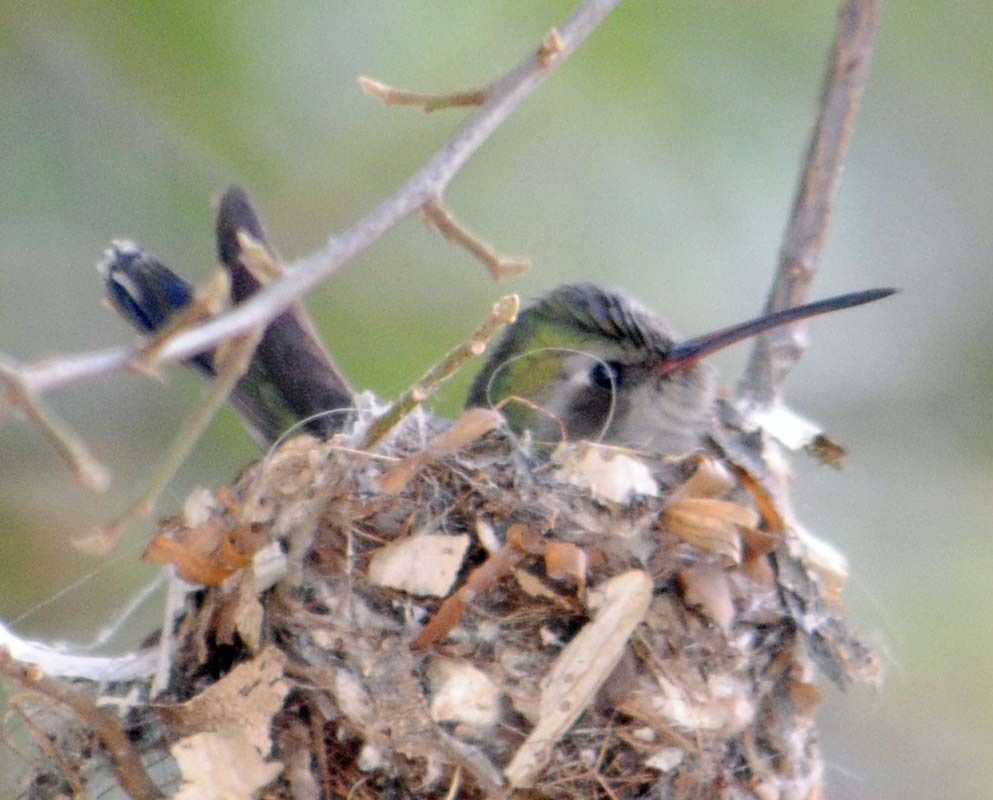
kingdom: Animalia
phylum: Chordata
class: Aves
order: Apodiformes
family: Trochilidae
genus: Cynanthus
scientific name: Cynanthus latirostris
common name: Broad-billed hummingbird
